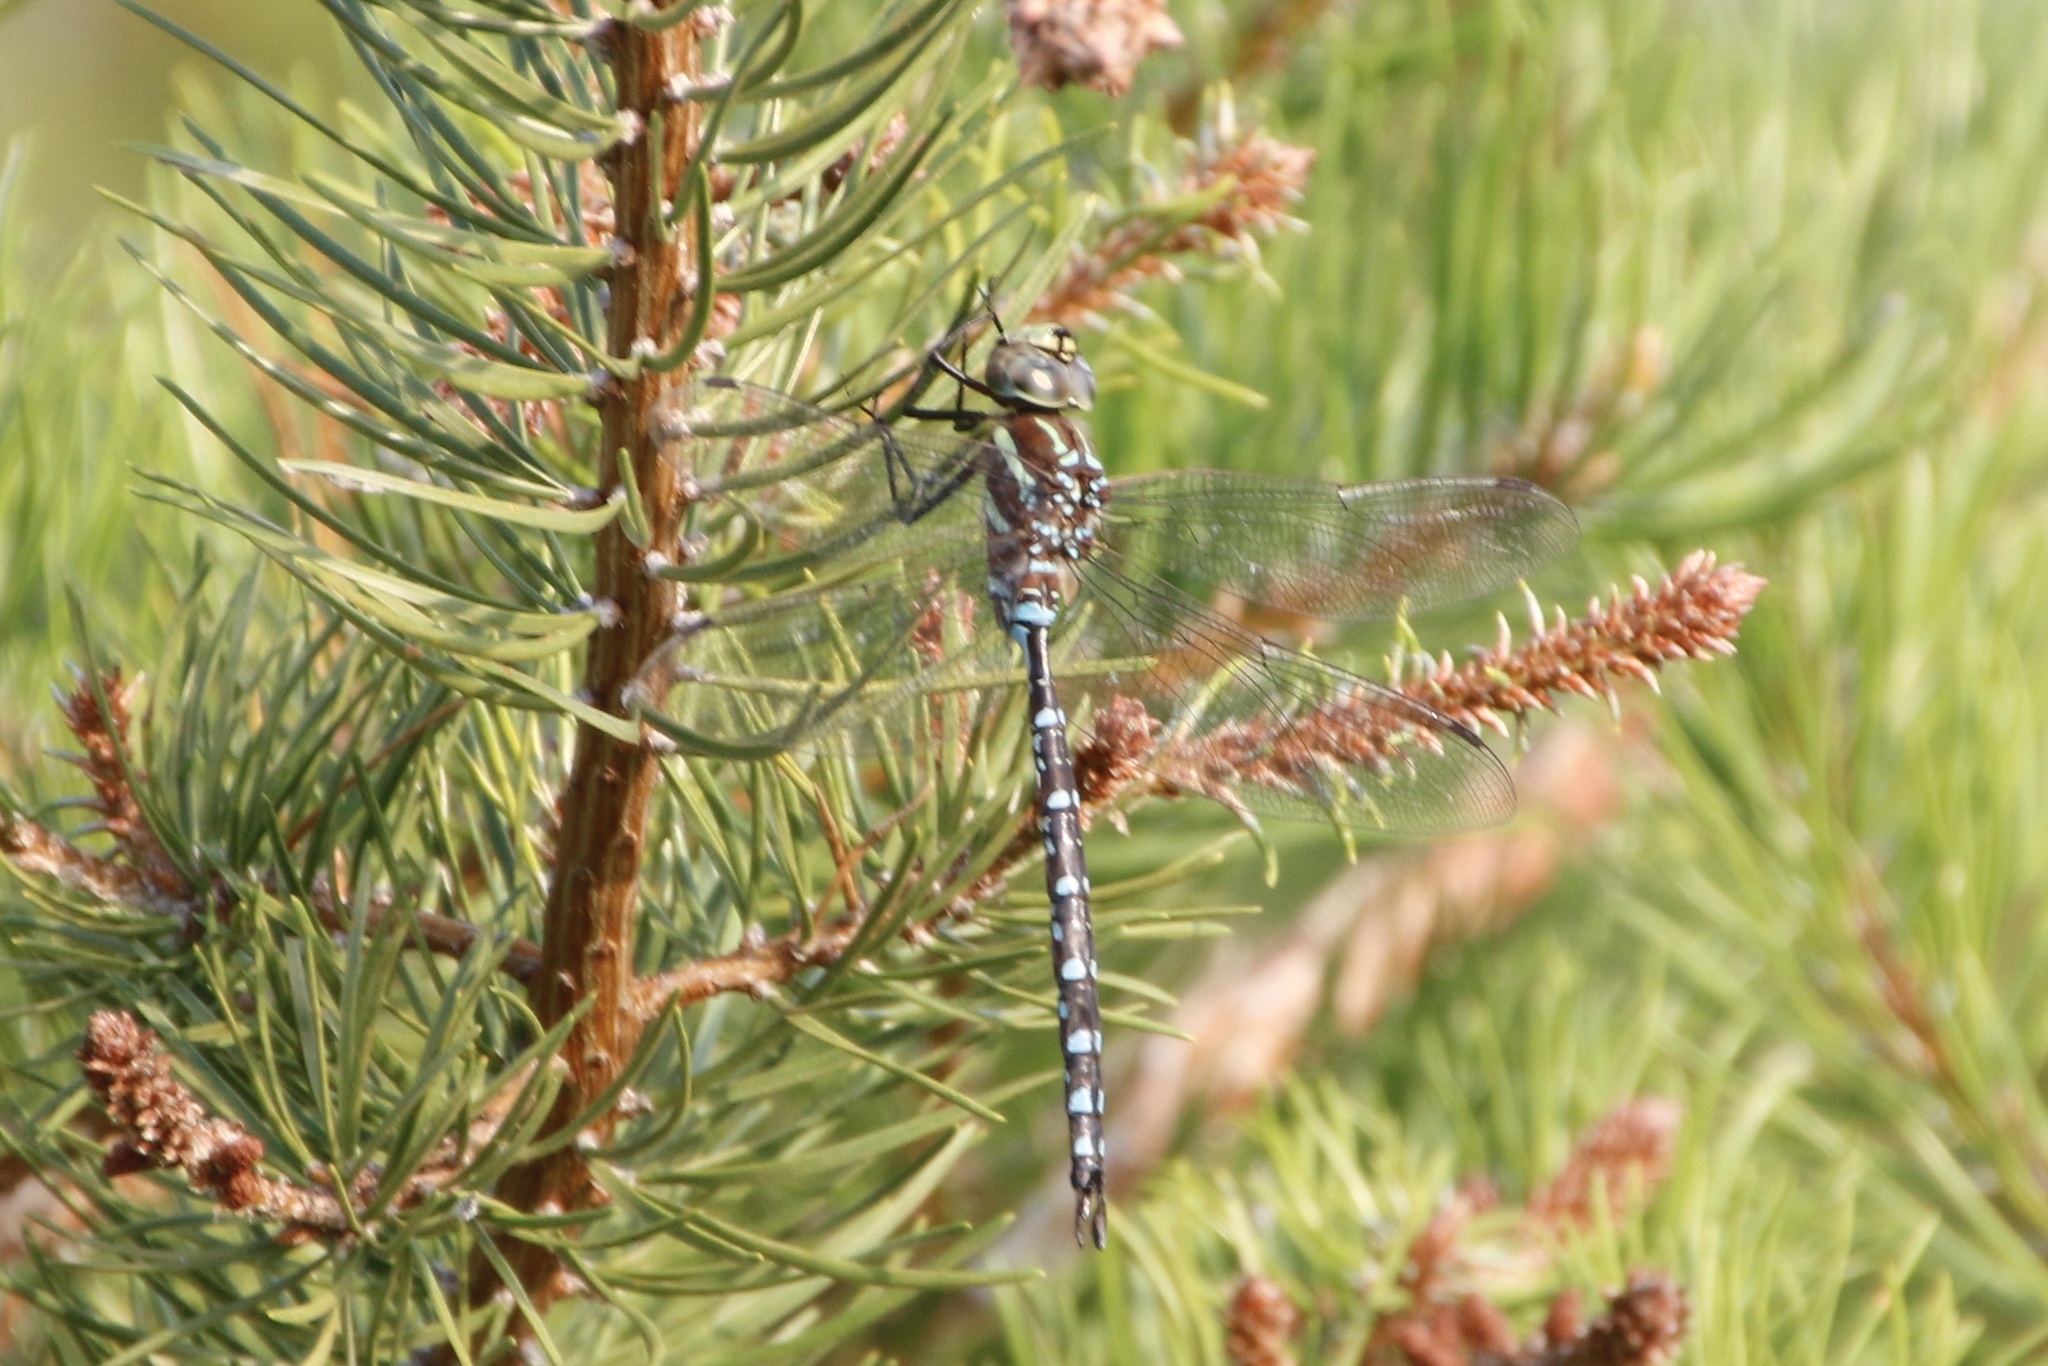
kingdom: Animalia
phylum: Arthropoda
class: Insecta
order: Odonata
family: Aeshnidae
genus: Aeshna
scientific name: Aeshna tuberculifera
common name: Aeschne à tubercules
